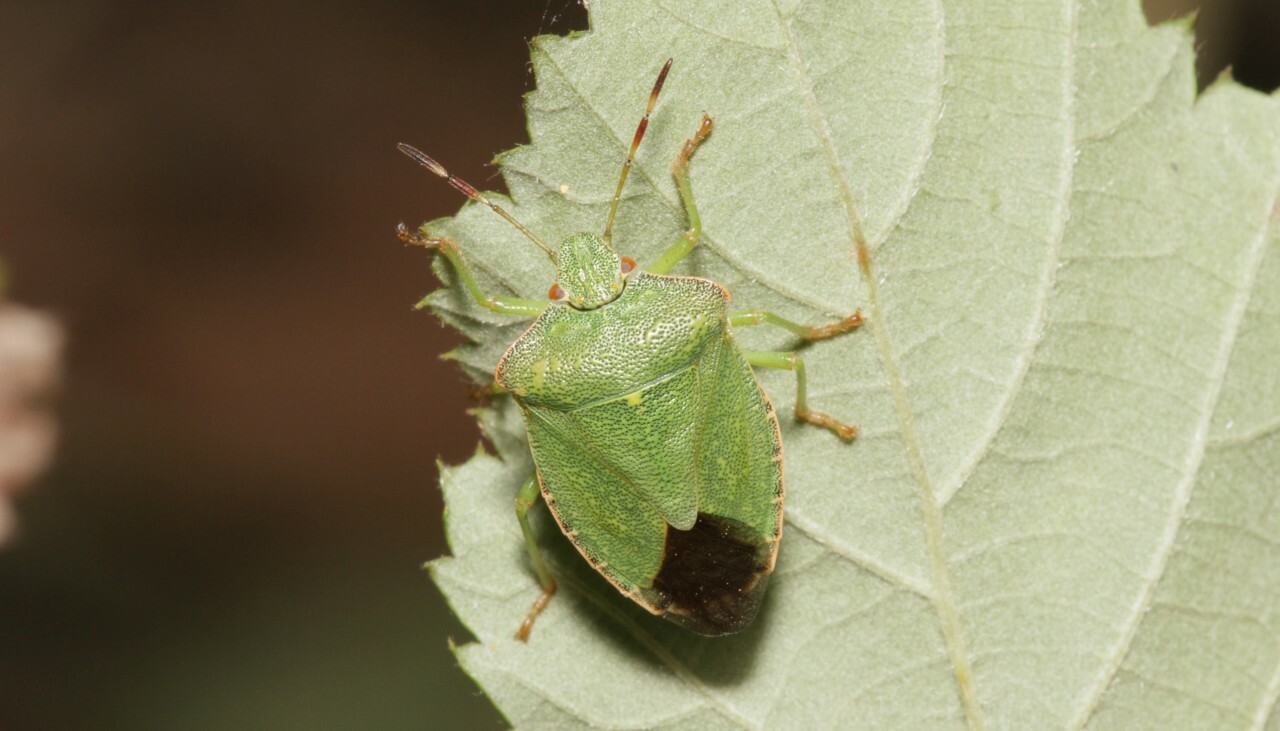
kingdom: Animalia
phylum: Arthropoda
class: Insecta
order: Hemiptera
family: Pentatomidae
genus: Palomena
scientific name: Palomena prasina
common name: Green shieldbug
